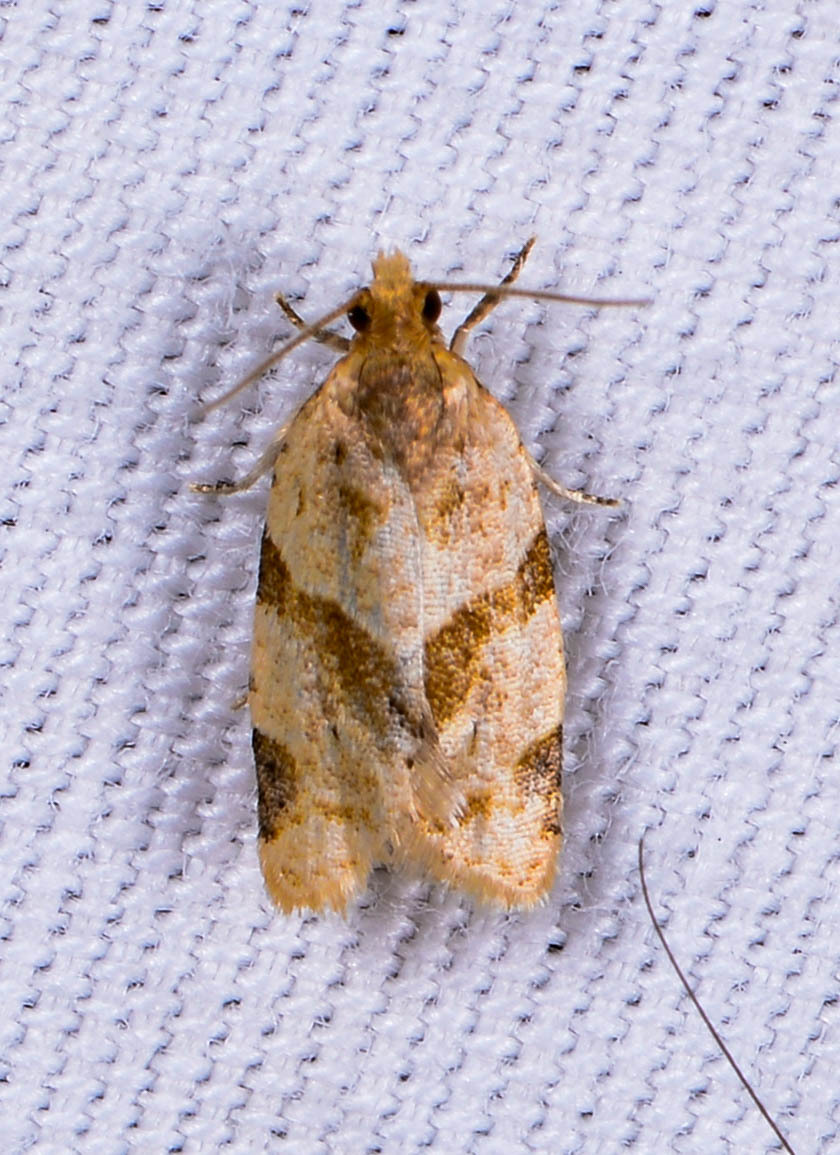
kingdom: Animalia
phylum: Arthropoda
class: Insecta
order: Lepidoptera
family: Tortricidae
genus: Clepsis
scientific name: Clepsis peritana
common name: Garden tortrix
